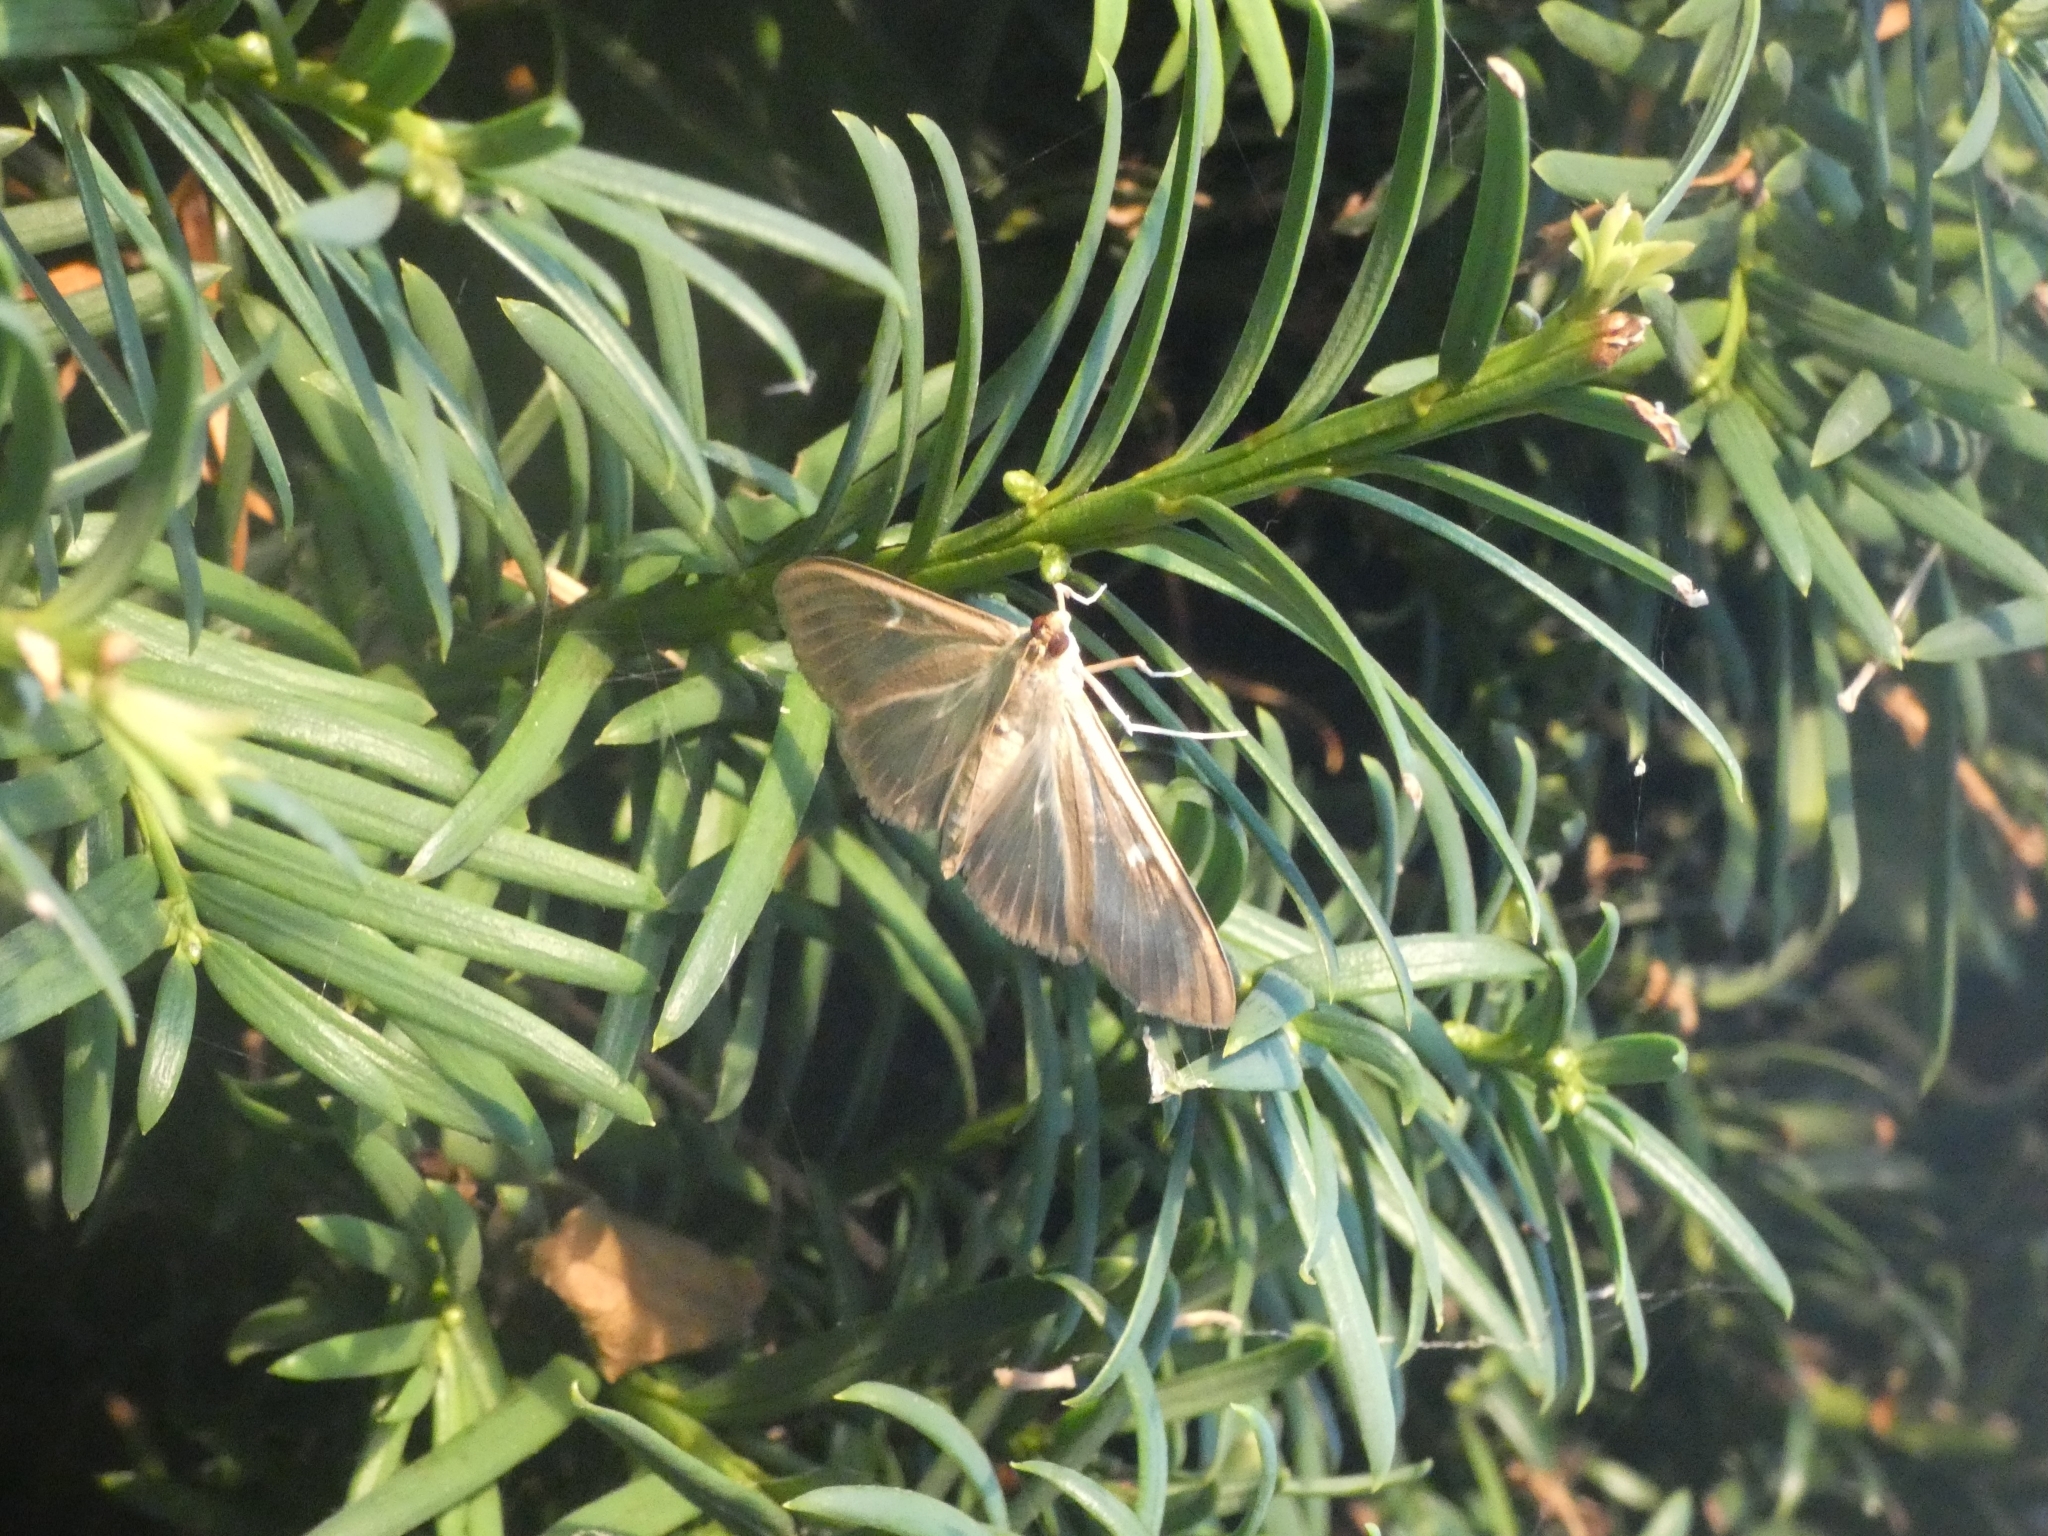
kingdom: Animalia
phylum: Arthropoda
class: Insecta
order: Lepidoptera
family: Crambidae
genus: Cydalima
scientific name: Cydalima perspectalis
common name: Box tree moth
